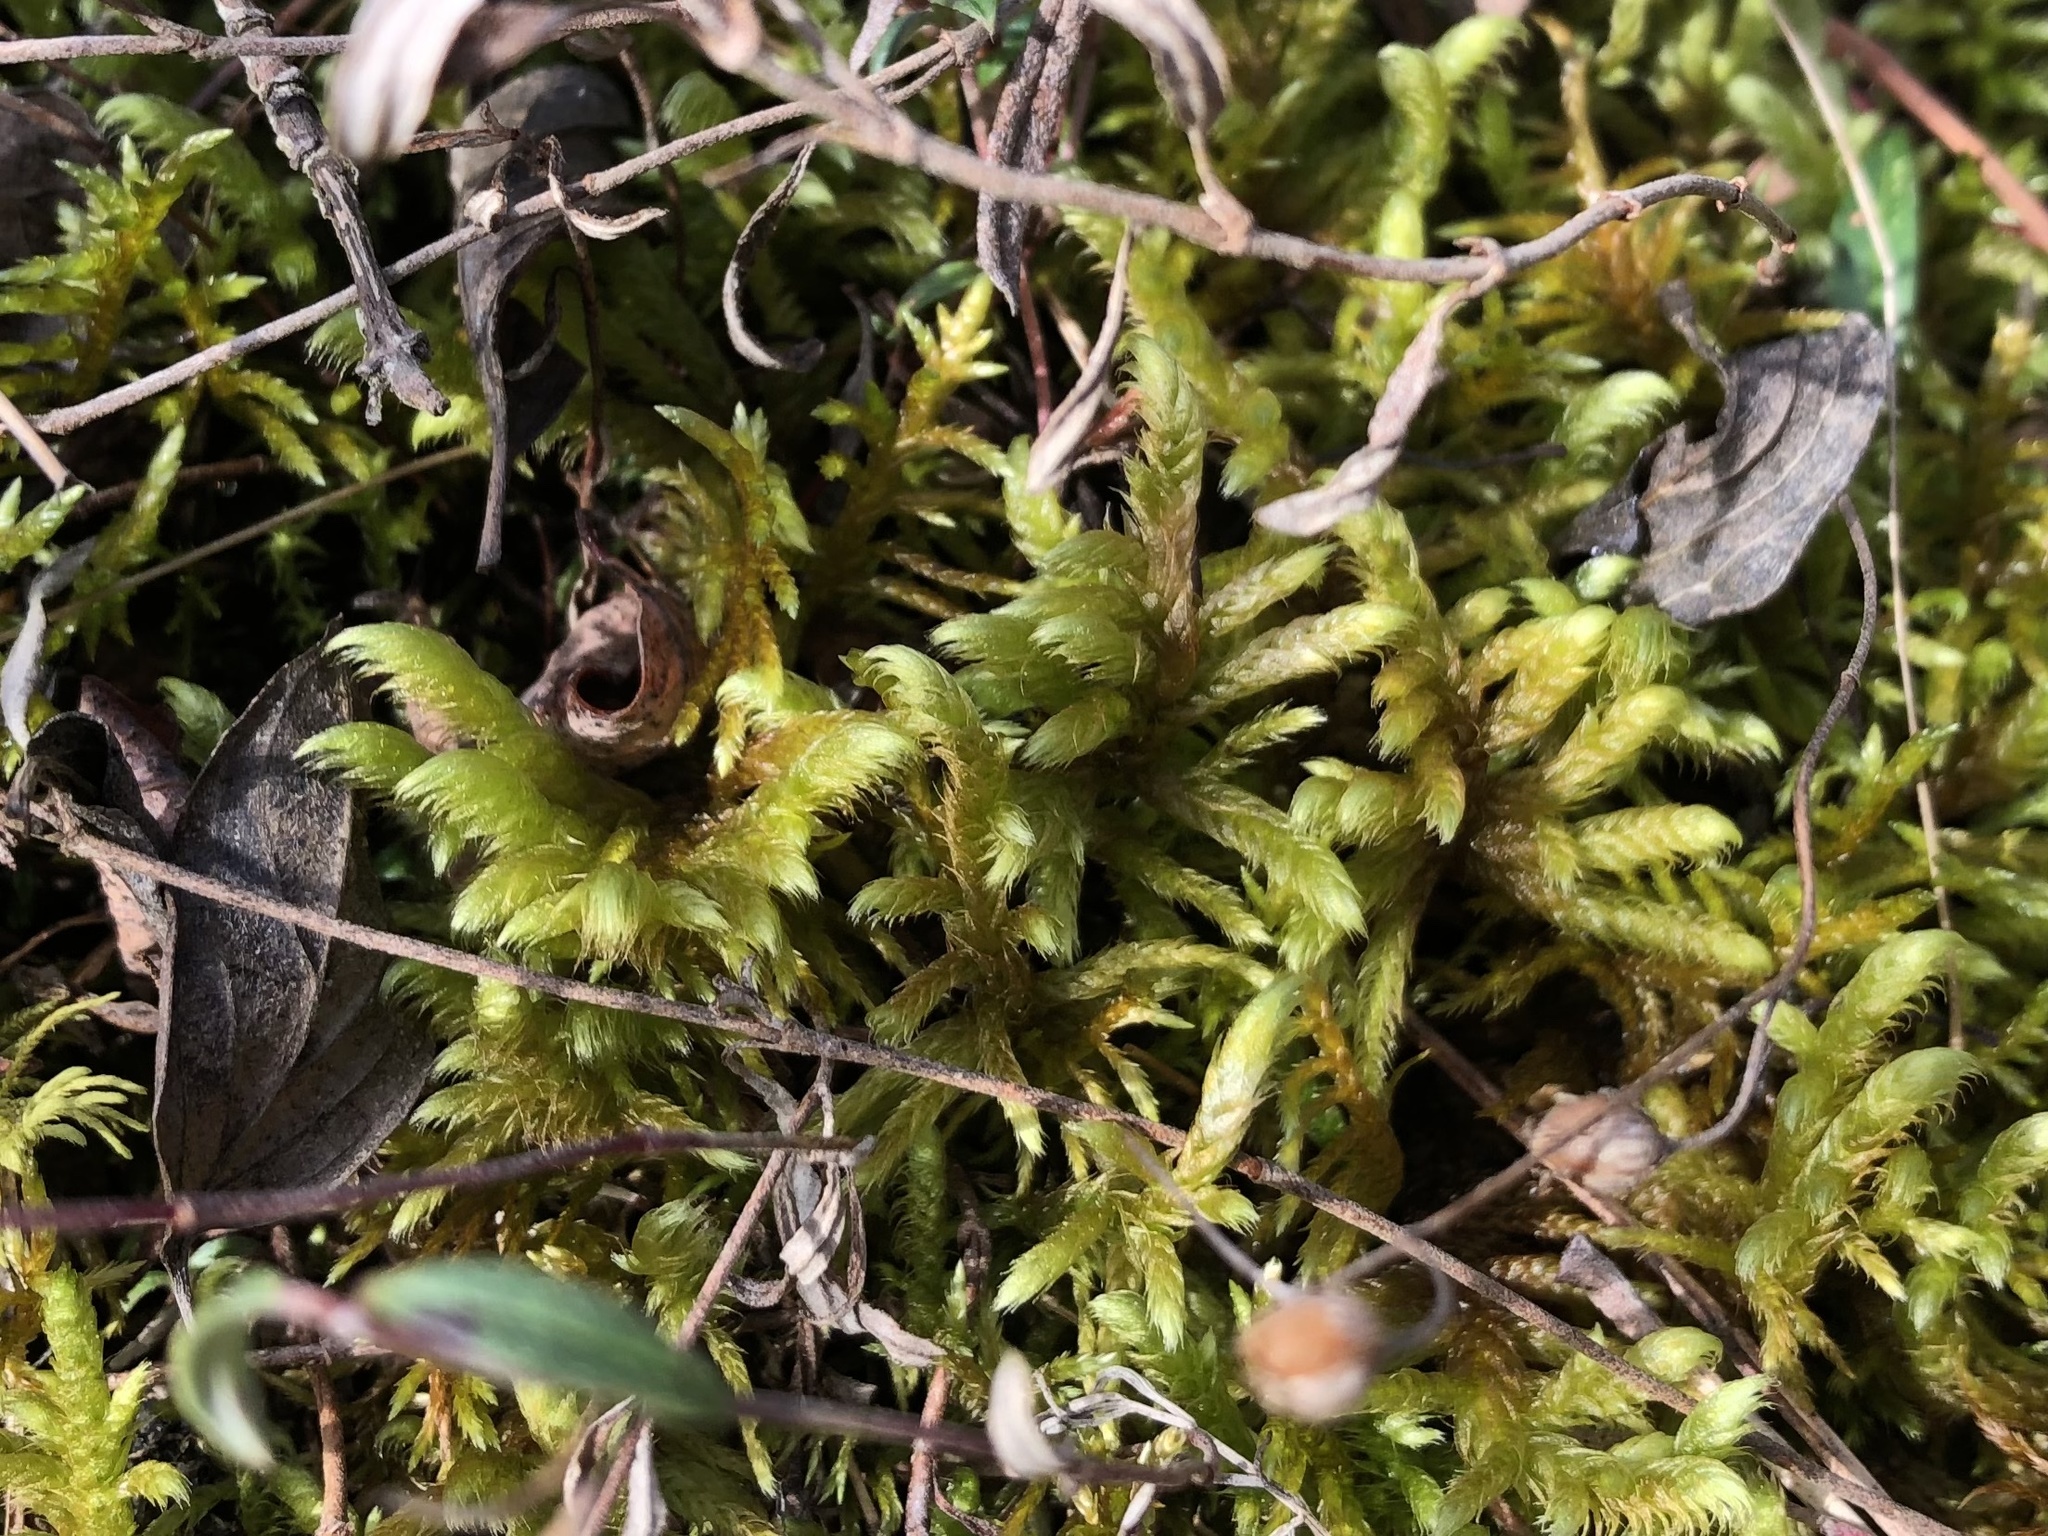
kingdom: Plantae
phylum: Bryophyta
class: Bryopsida
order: Hypnales
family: Rhytidiaceae
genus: Rhytidium
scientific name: Rhytidium rugosum
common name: Wrinkle-leaved moss
